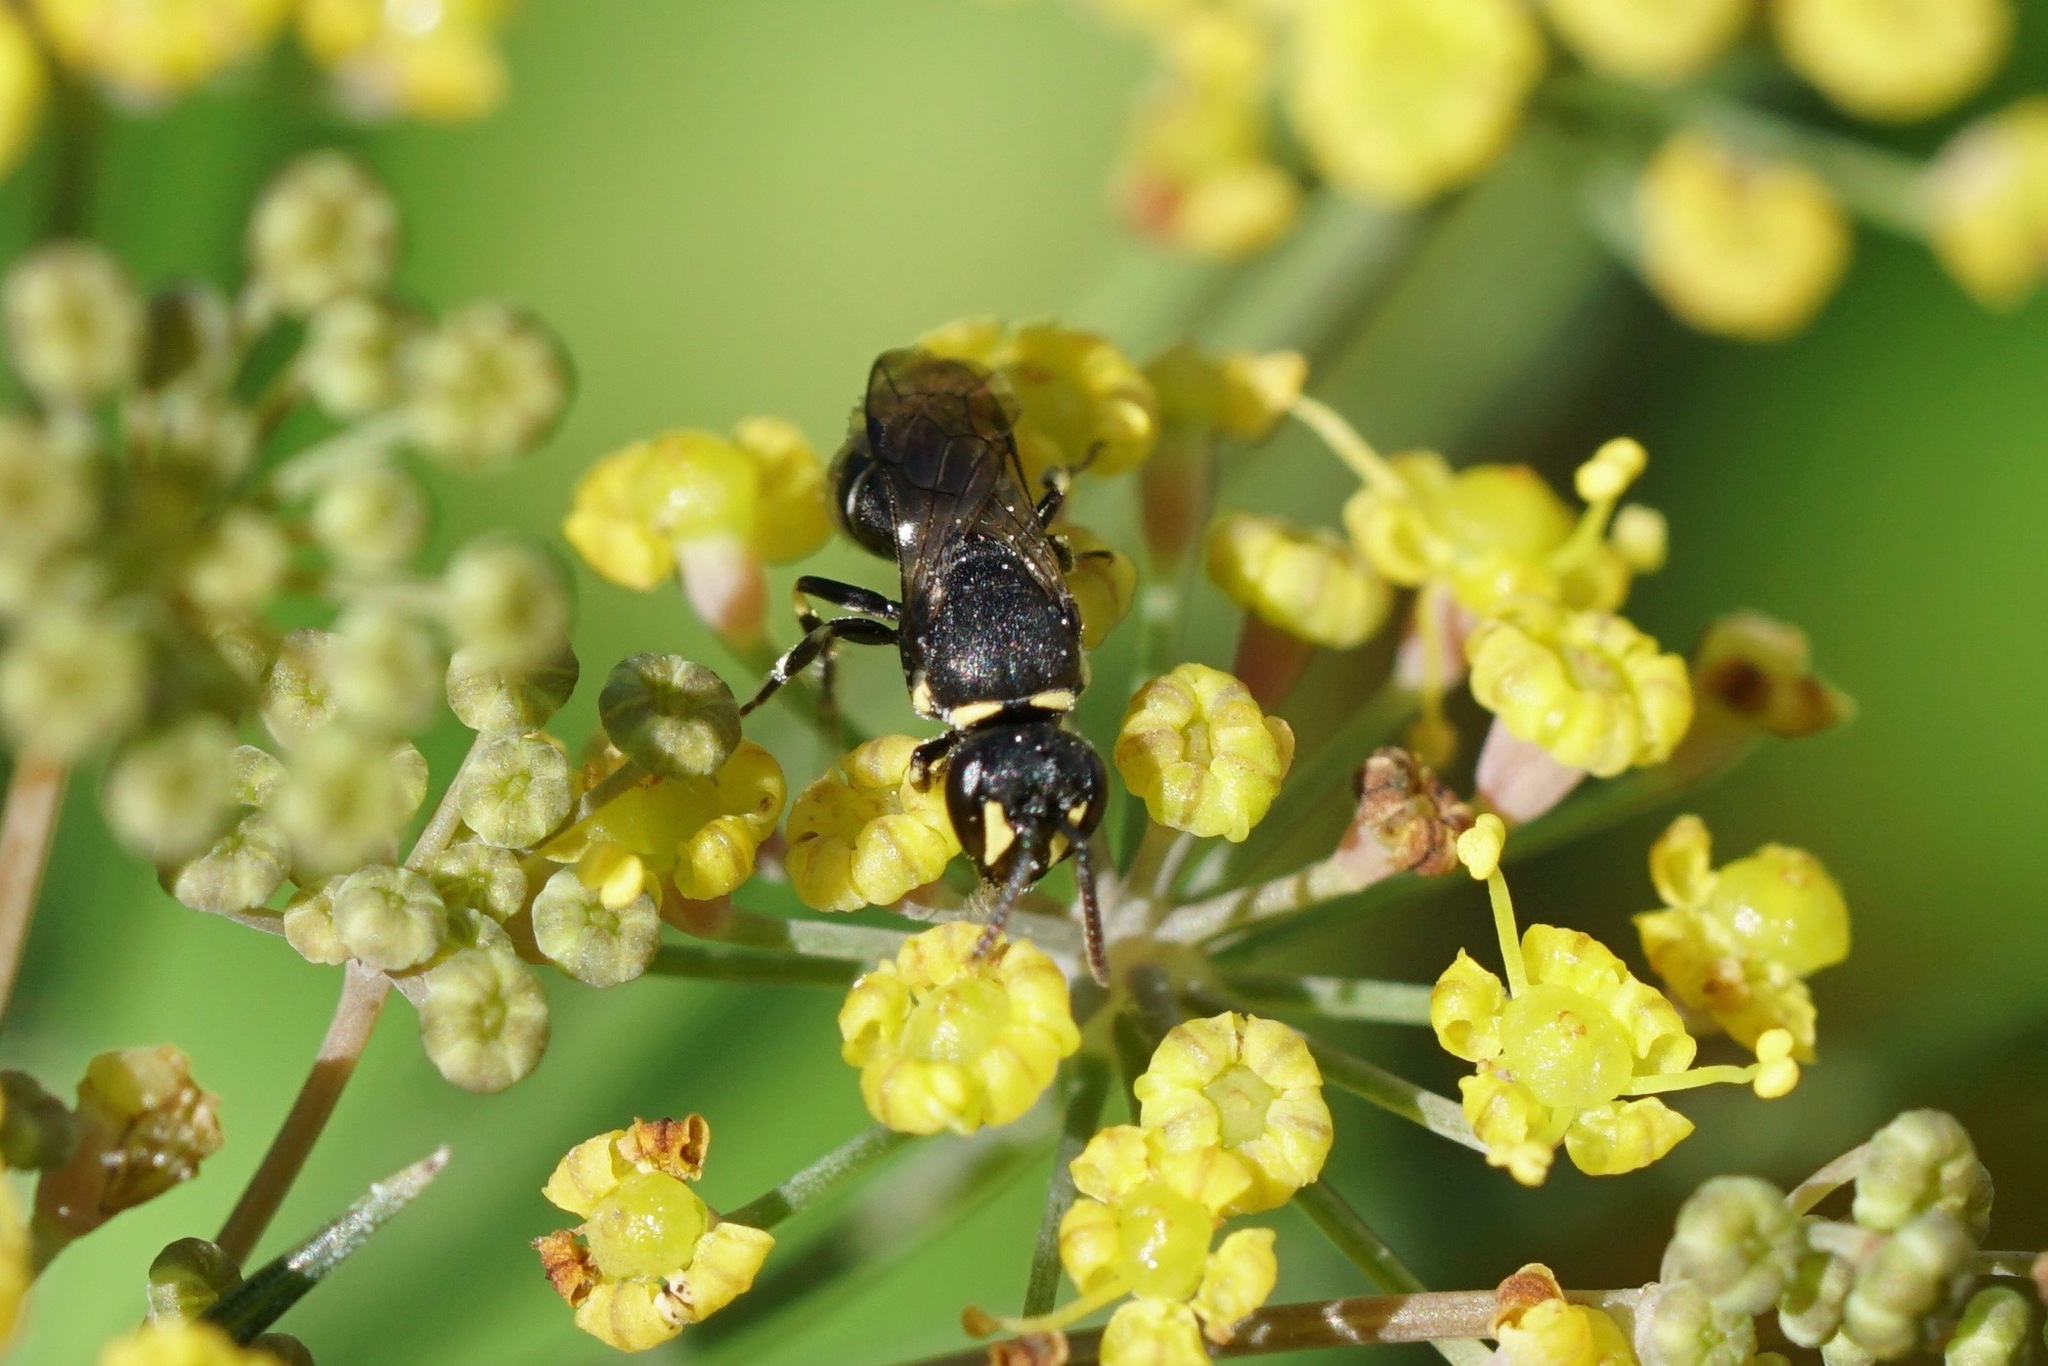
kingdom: Animalia
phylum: Arthropoda
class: Insecta
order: Hymenoptera
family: Colletidae
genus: Hylaeus
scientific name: Hylaeus modestus
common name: Yellow-faced bee
